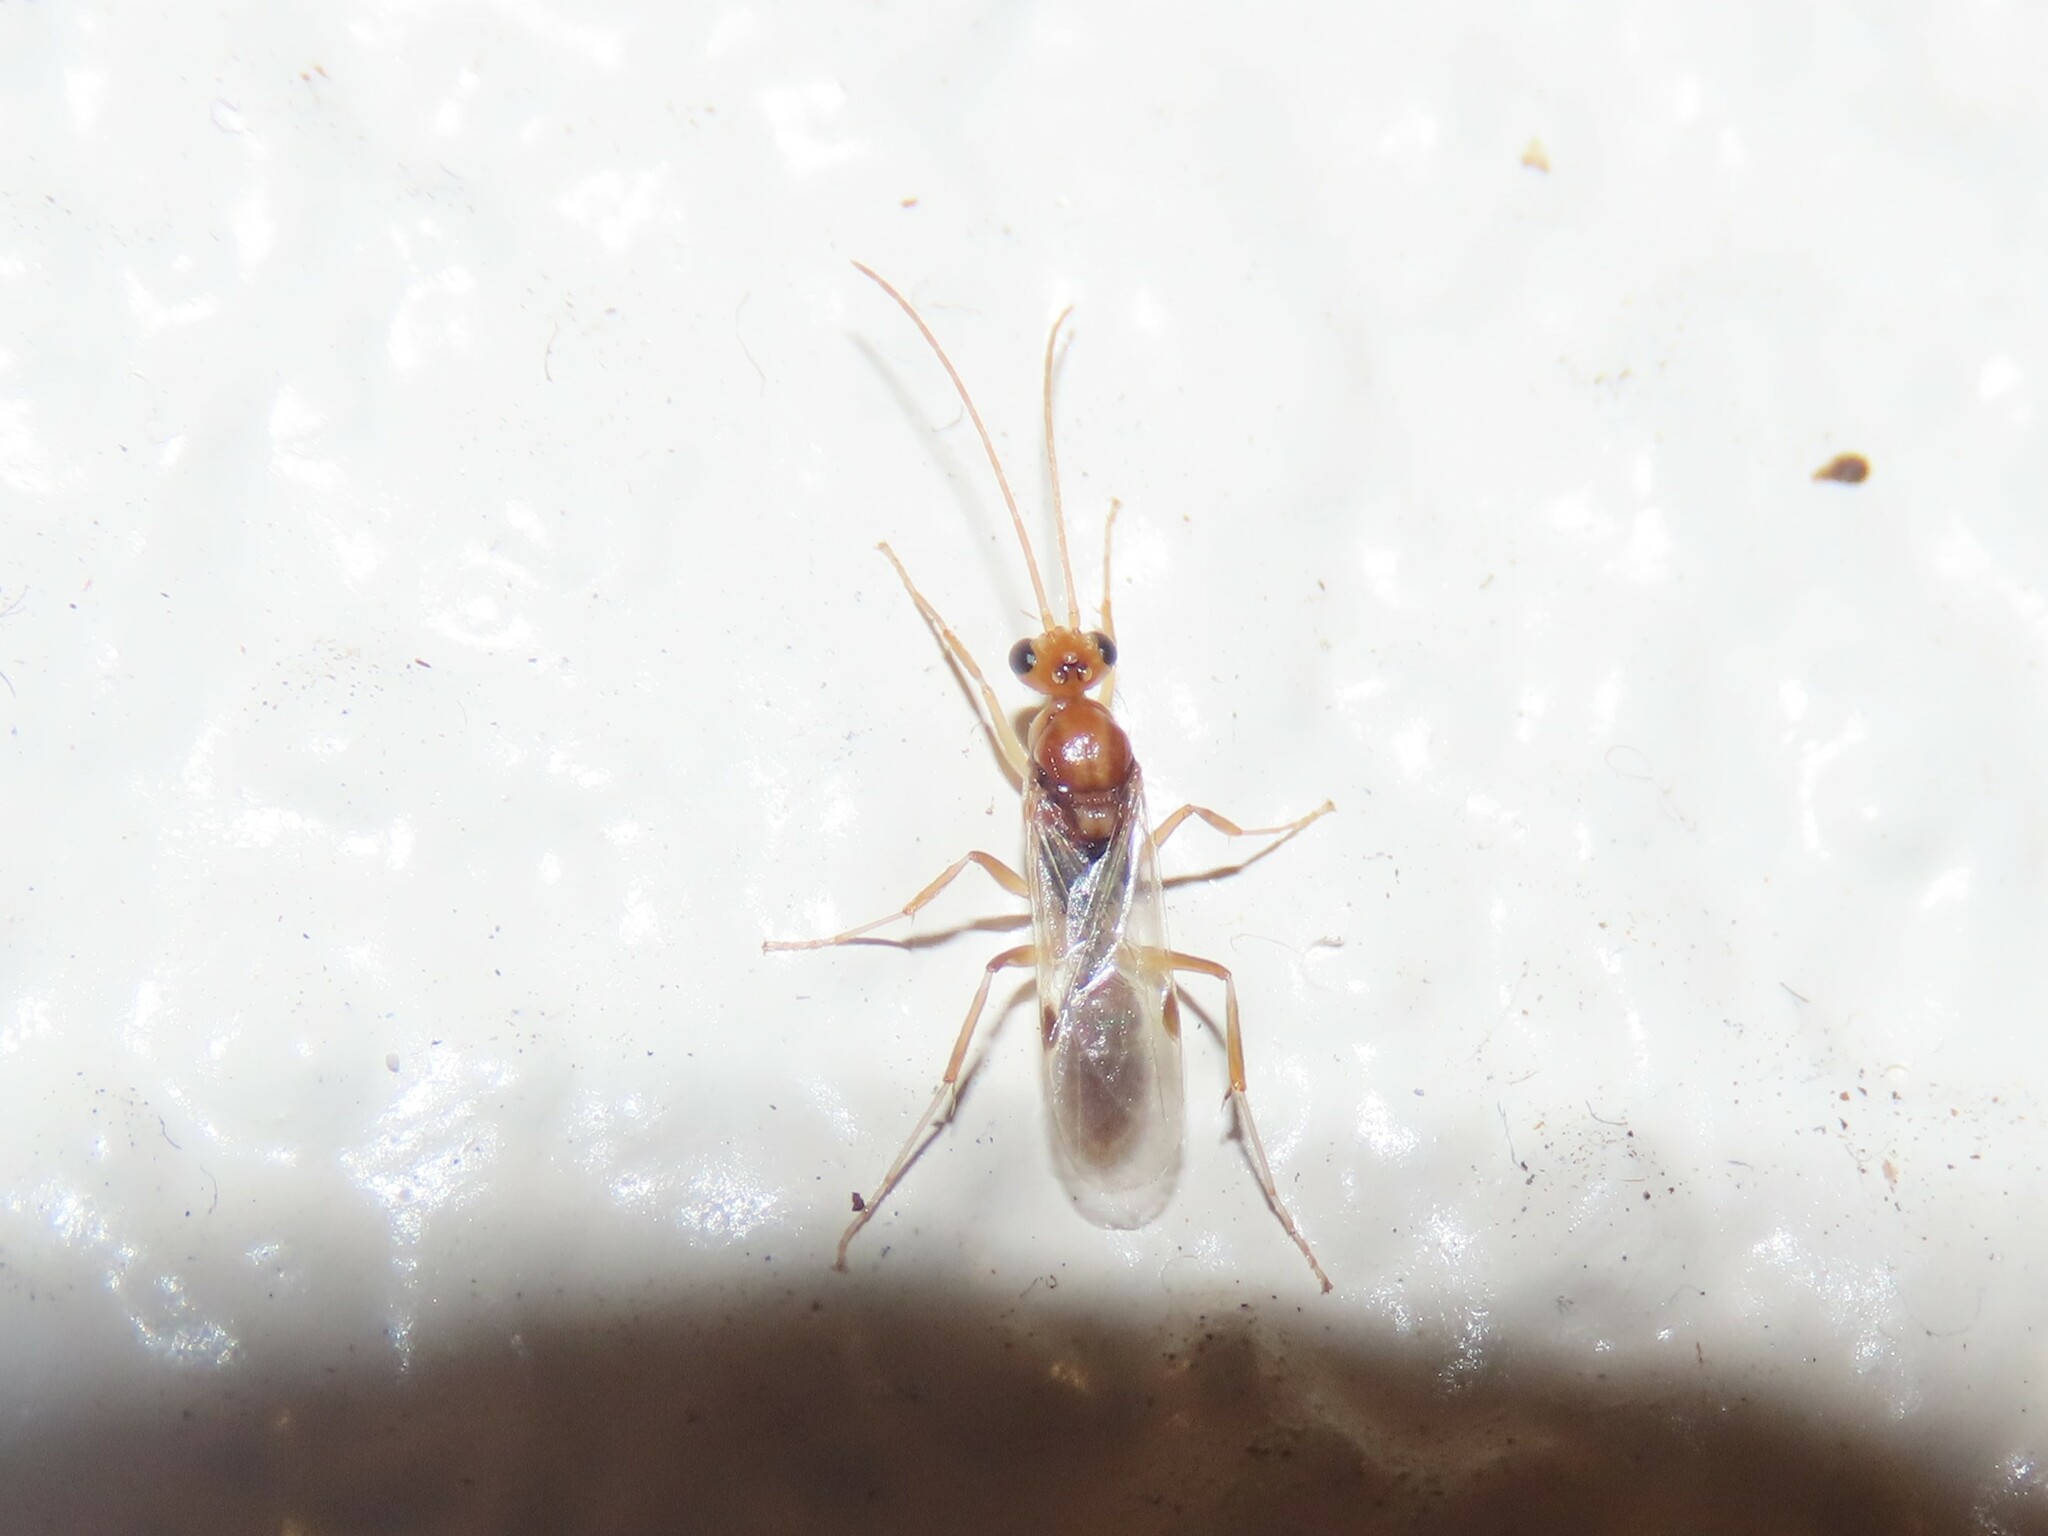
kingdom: Animalia
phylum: Arthropoda
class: Insecta
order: Hymenoptera
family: Formicidae
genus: Odontomachus
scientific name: Odontomachus ruginodis
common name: Trapjaw ant
